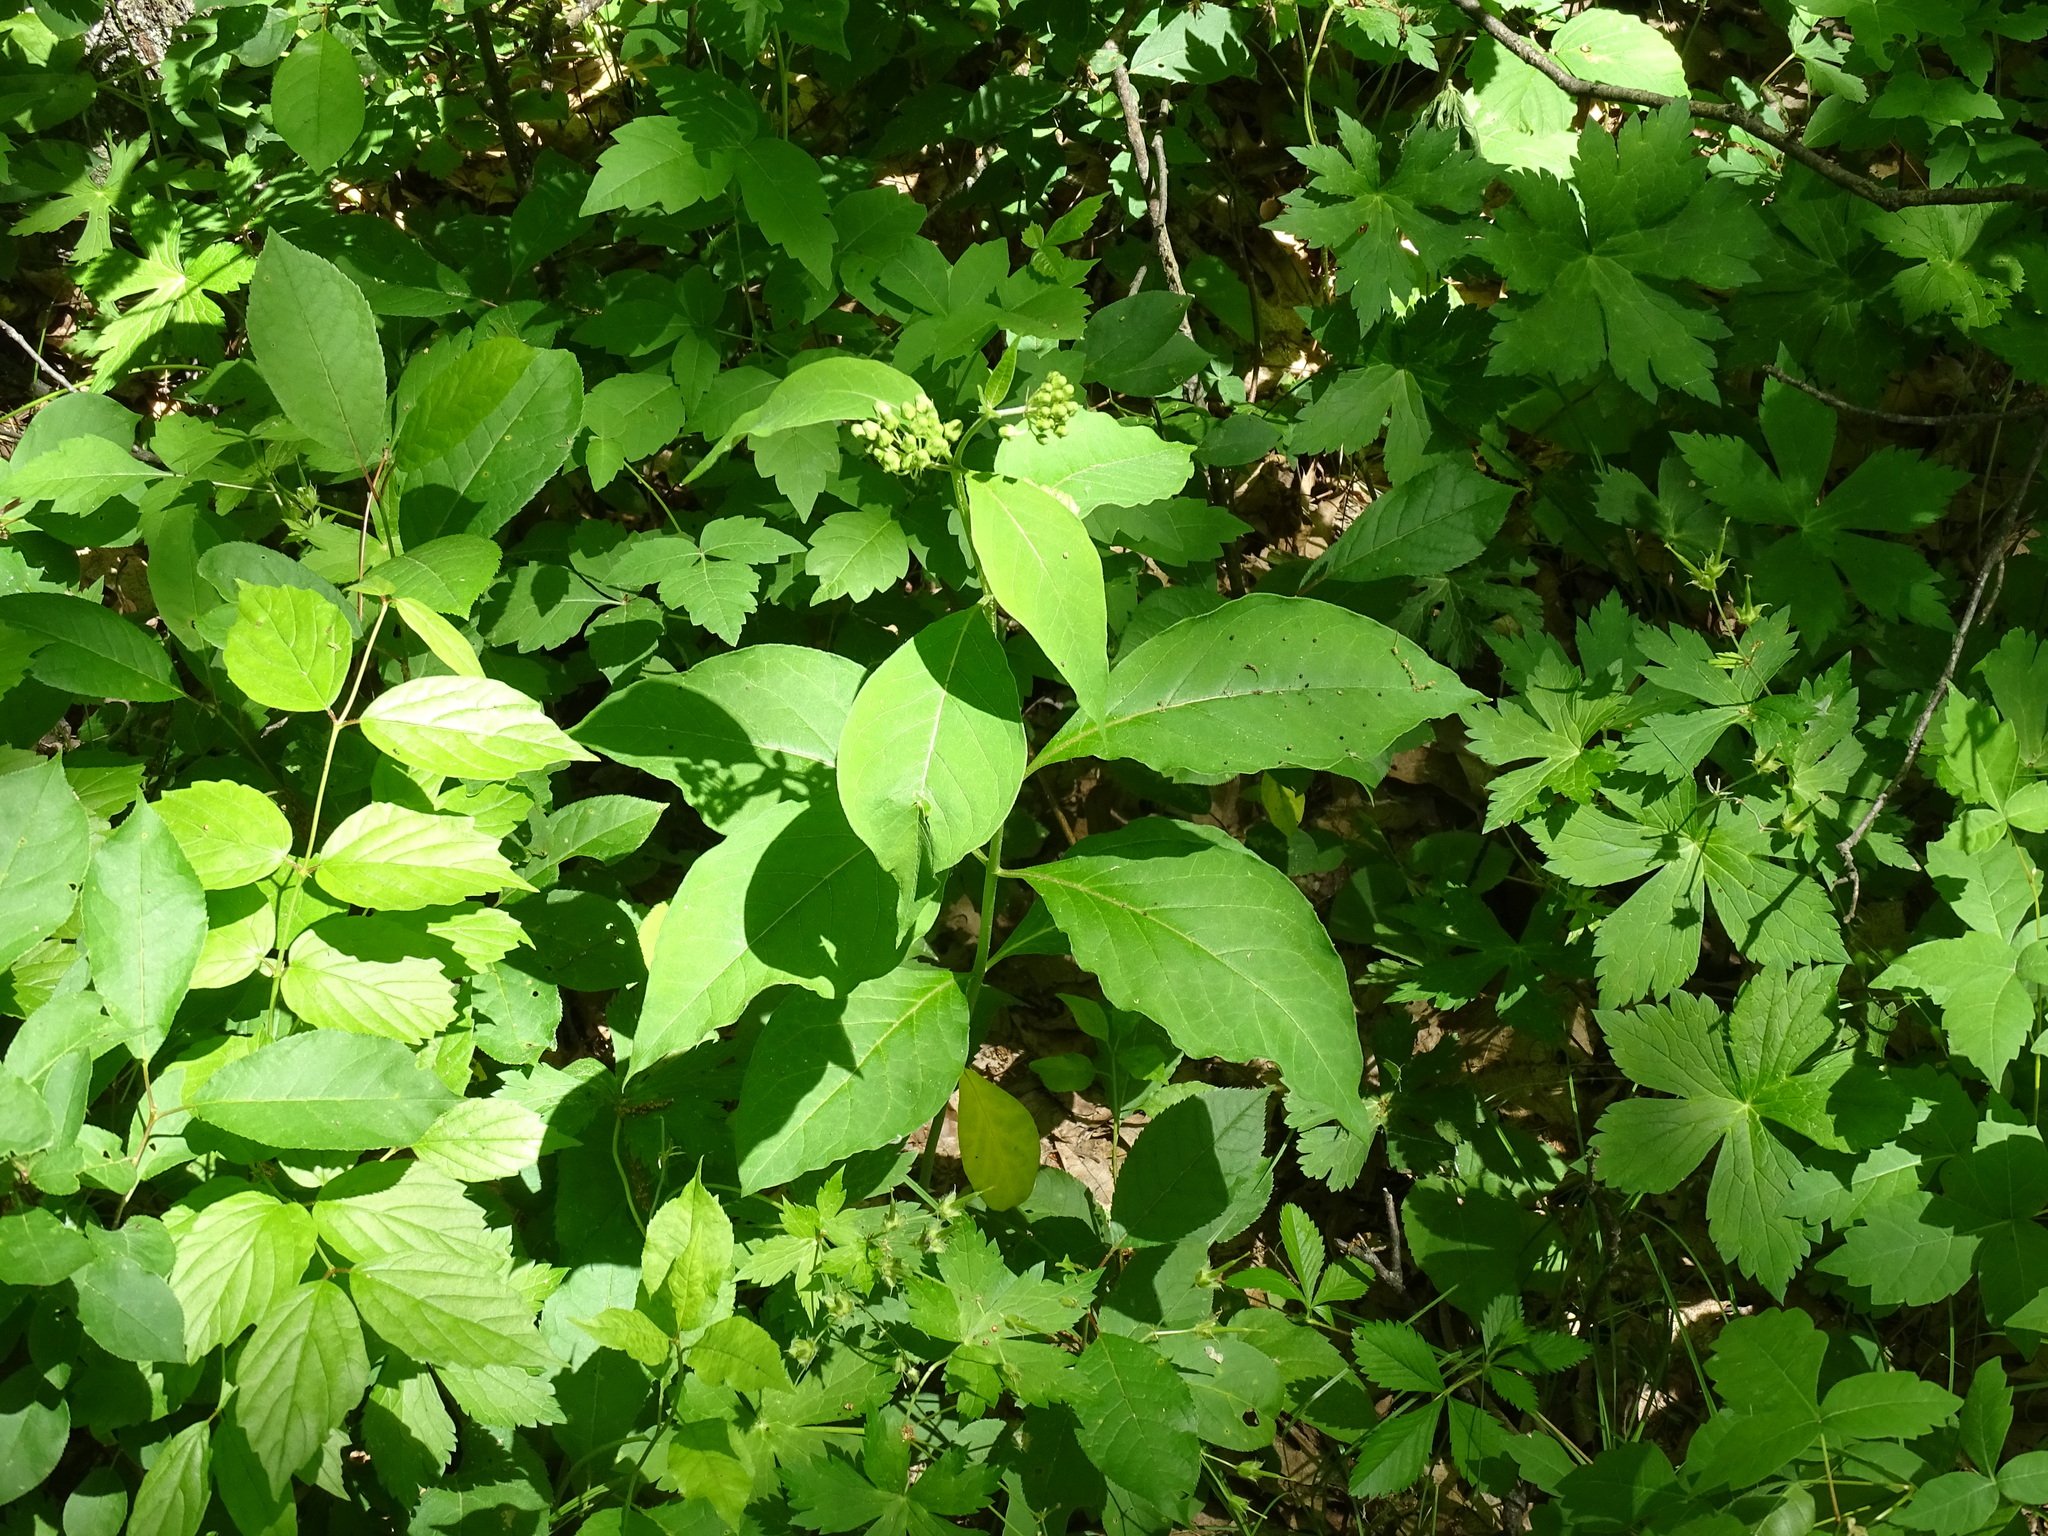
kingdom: Plantae
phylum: Tracheophyta
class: Magnoliopsida
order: Gentianales
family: Apocynaceae
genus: Asclepias
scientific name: Asclepias exaltata
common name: Poke milkweed
